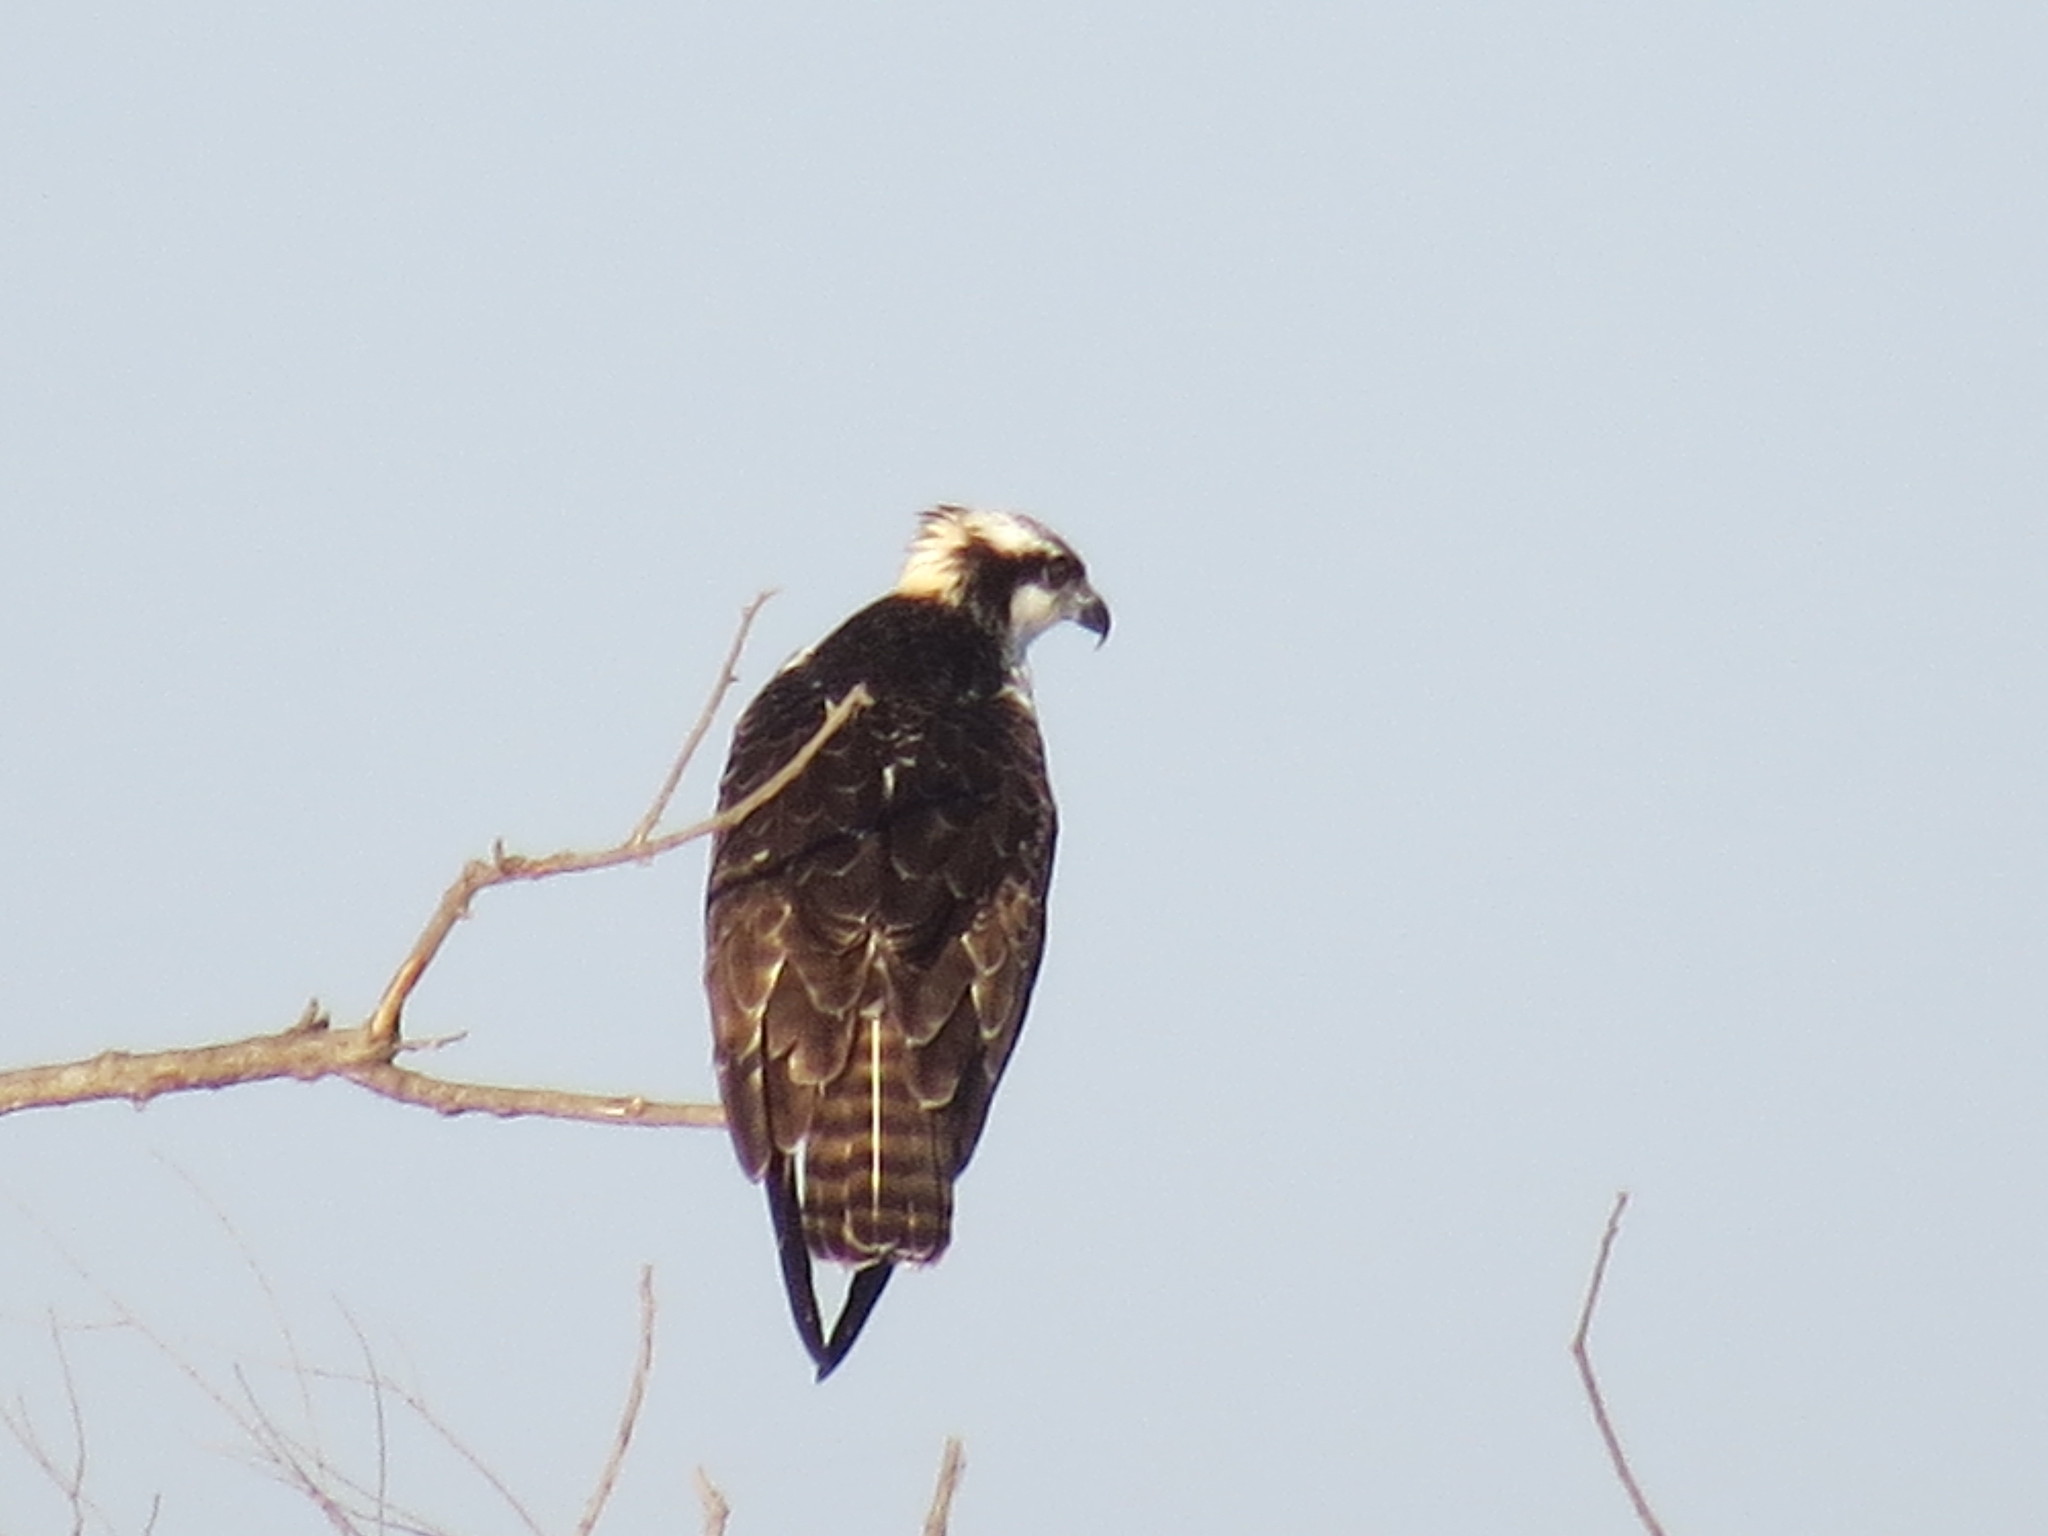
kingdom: Animalia
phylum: Chordata
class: Aves
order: Accipitriformes
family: Pandionidae
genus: Pandion
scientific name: Pandion haliaetus
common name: Osprey
